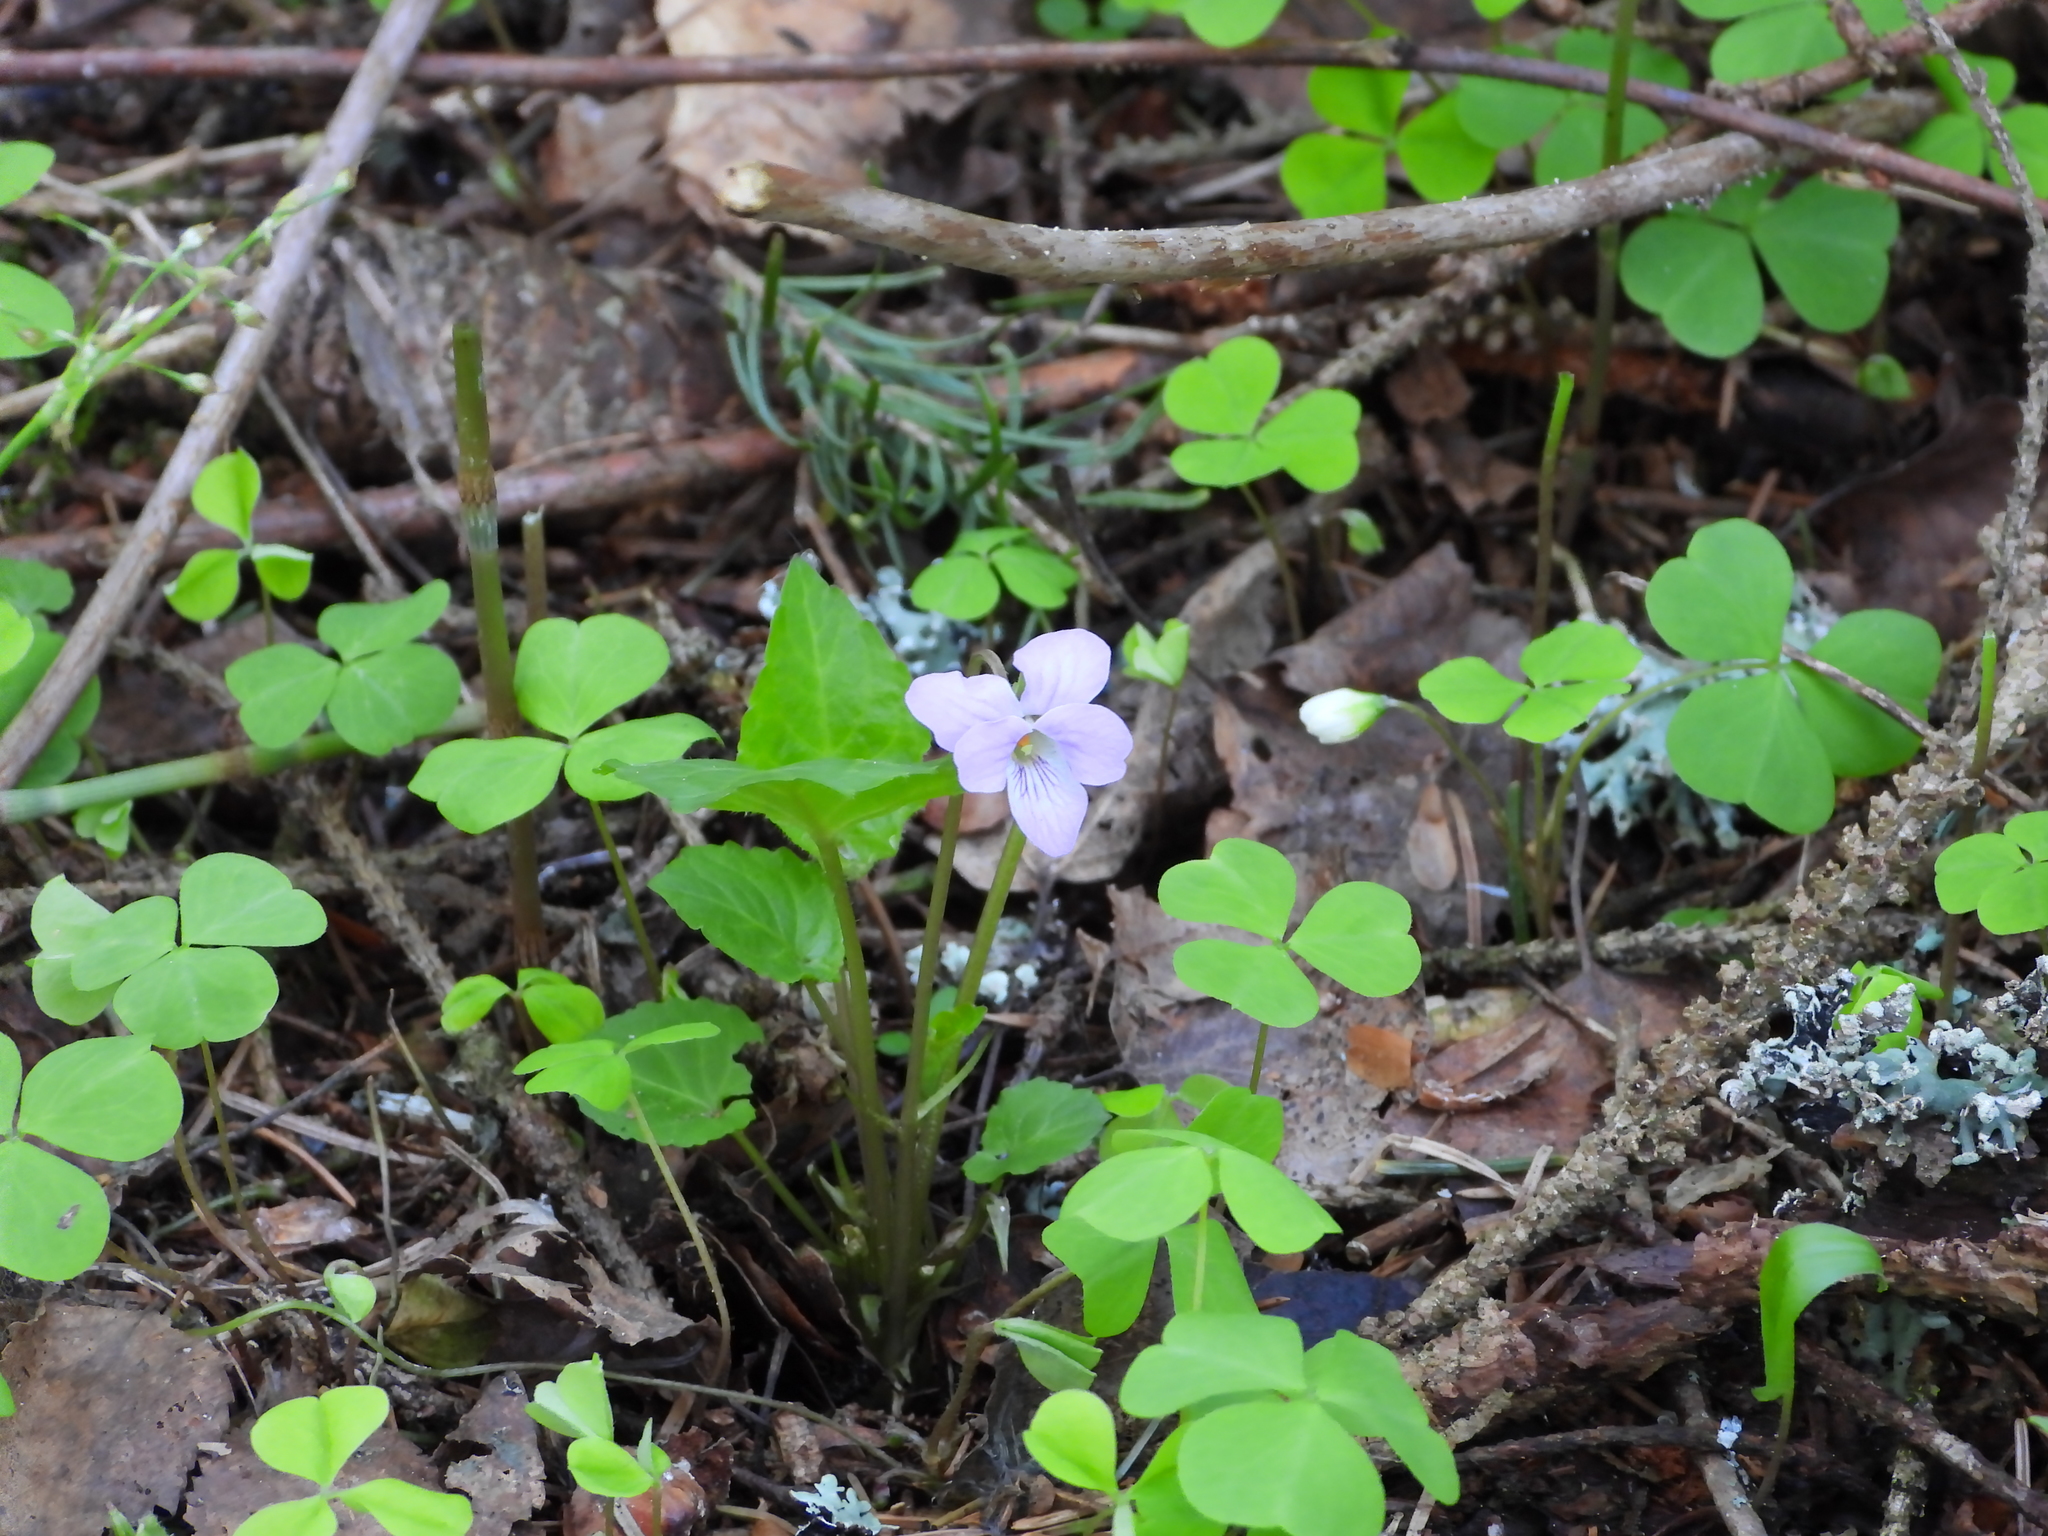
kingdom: Plantae
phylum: Tracheophyta
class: Magnoliopsida
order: Malpighiales
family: Violaceae
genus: Viola
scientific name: Viola selkirkii
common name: Selkirk's violet
